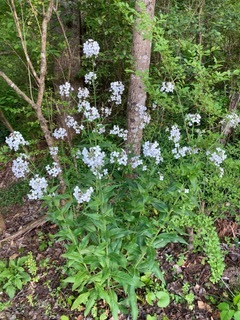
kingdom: Plantae
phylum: Tracheophyta
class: Magnoliopsida
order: Brassicales
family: Brassicaceae
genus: Hesperis
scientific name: Hesperis matronalis
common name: Dame's-violet
